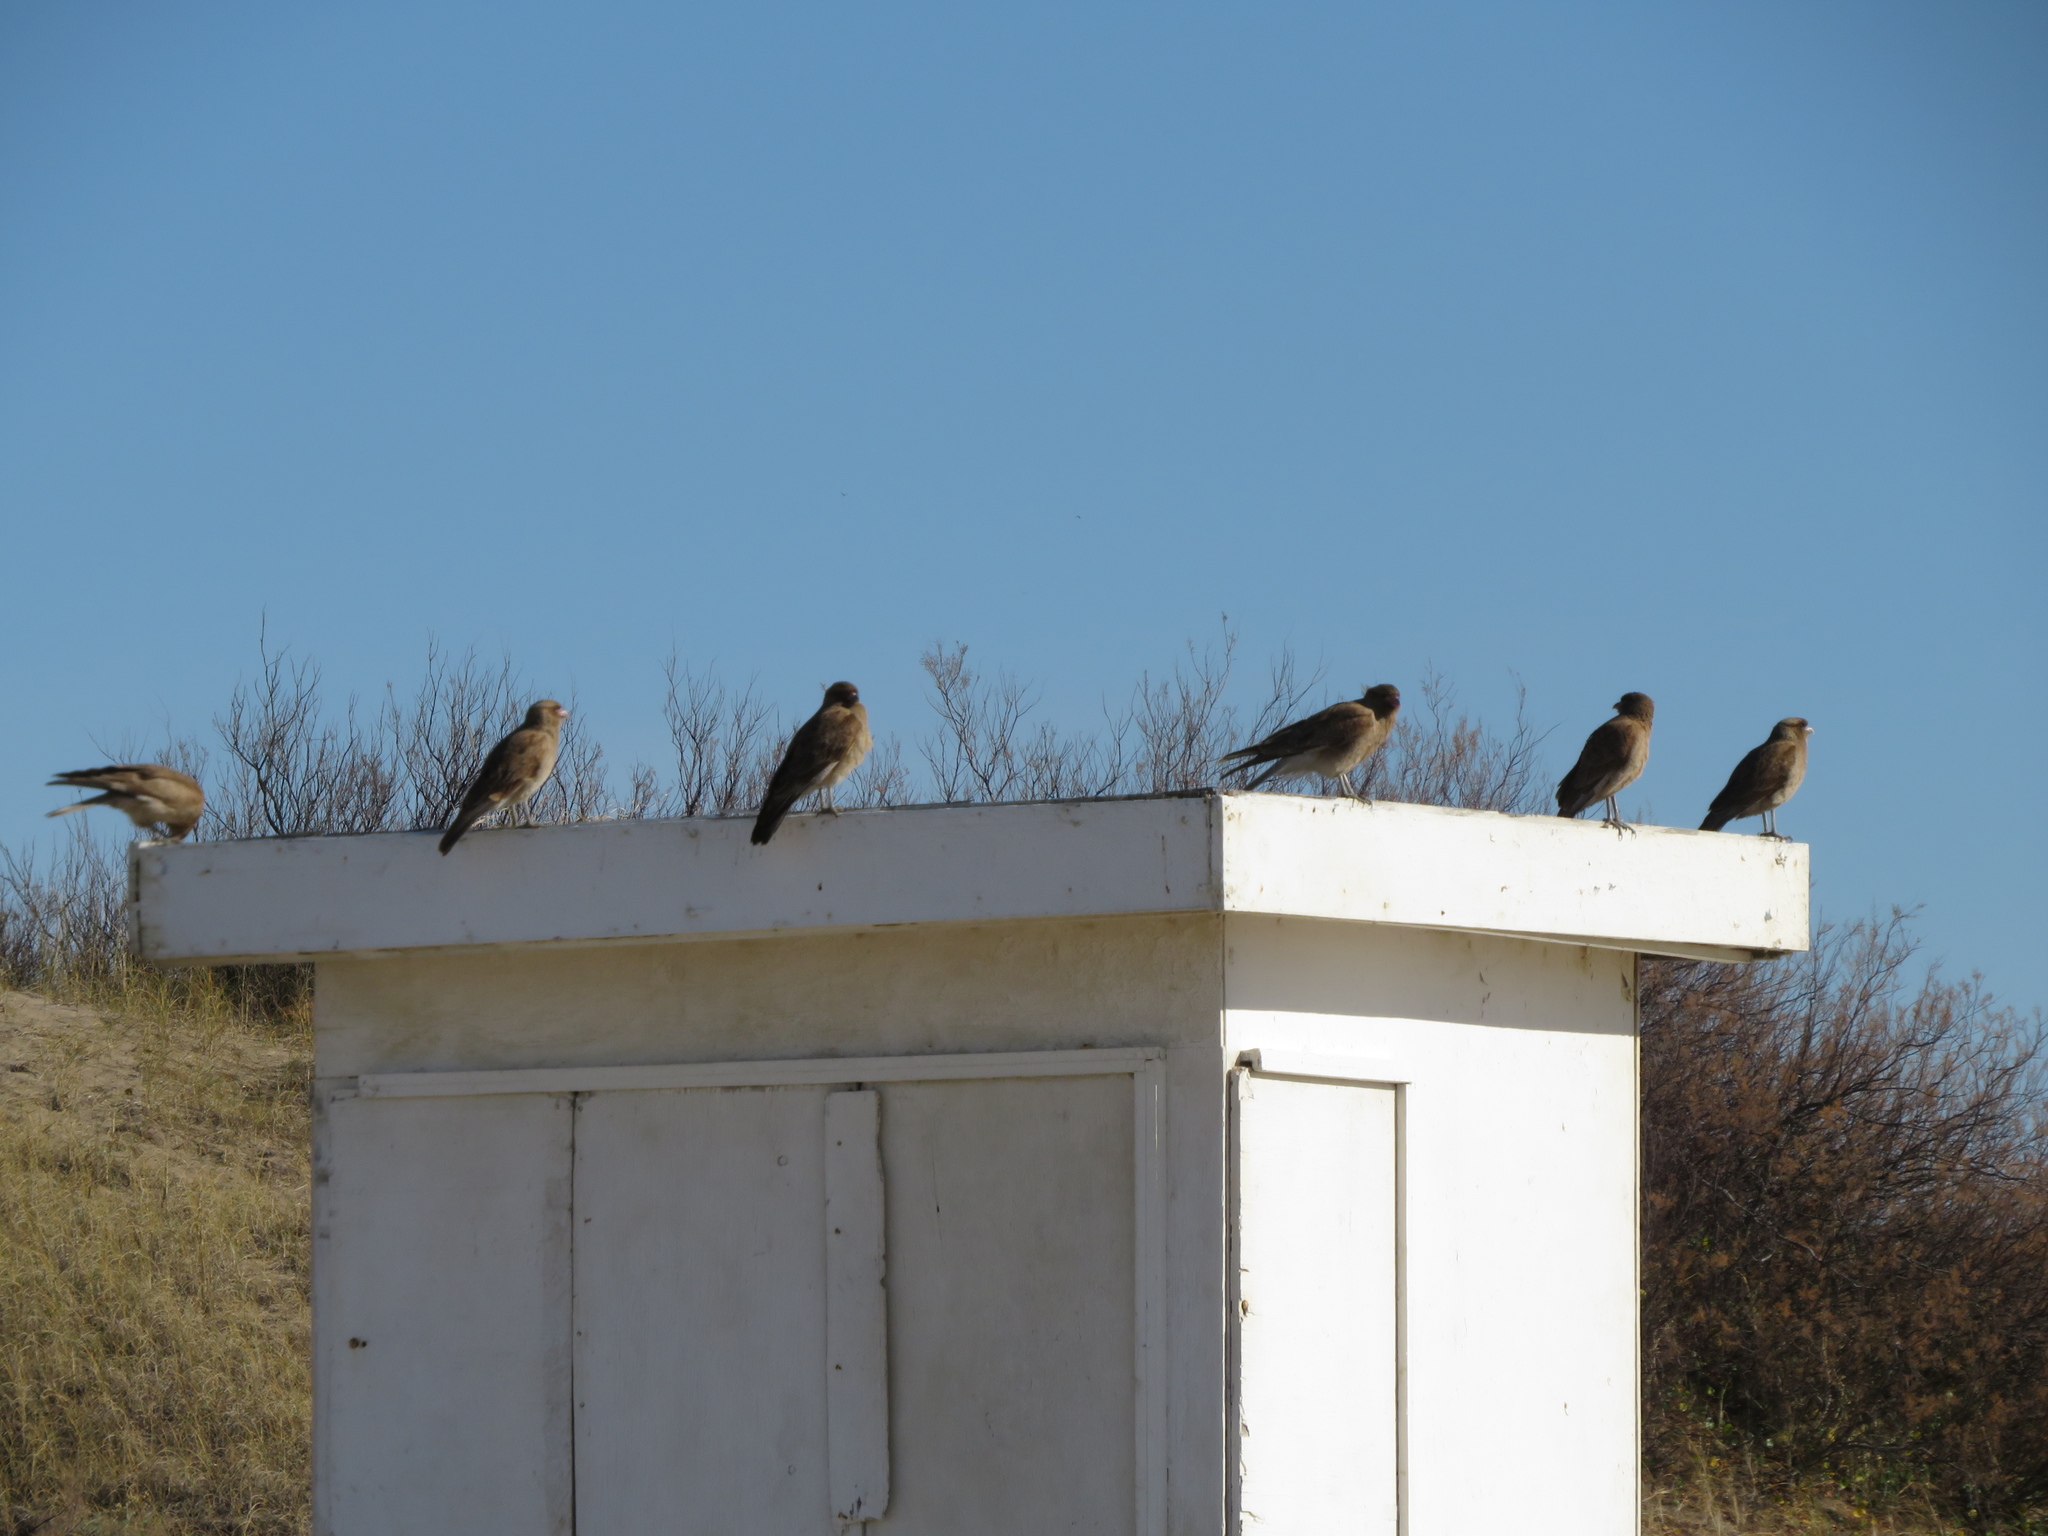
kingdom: Animalia
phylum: Chordata
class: Aves
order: Falconiformes
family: Falconidae
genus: Daptrius
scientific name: Daptrius
